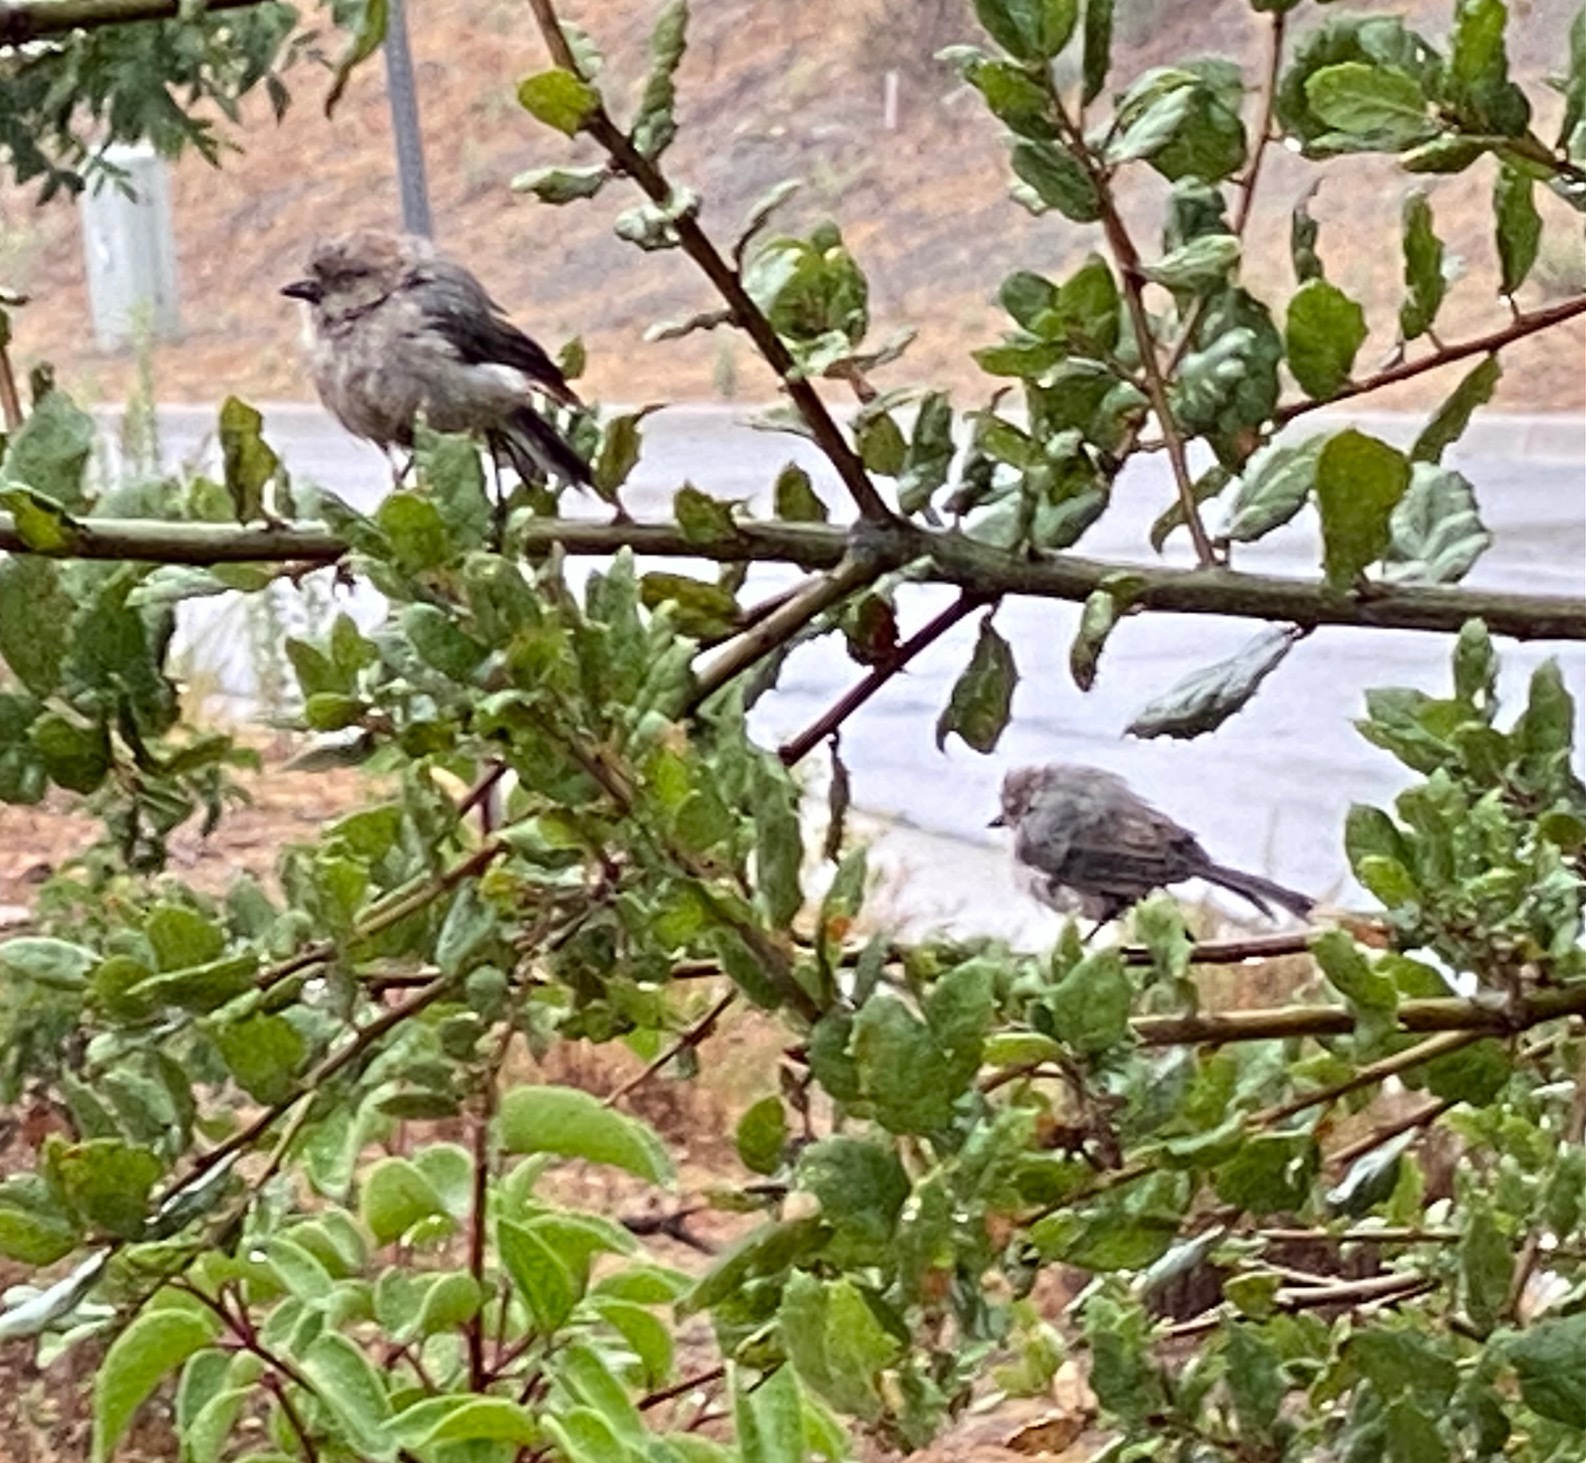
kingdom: Animalia
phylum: Chordata
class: Aves
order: Passeriformes
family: Aegithalidae
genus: Psaltriparus
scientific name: Psaltriparus minimus
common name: American bushtit
